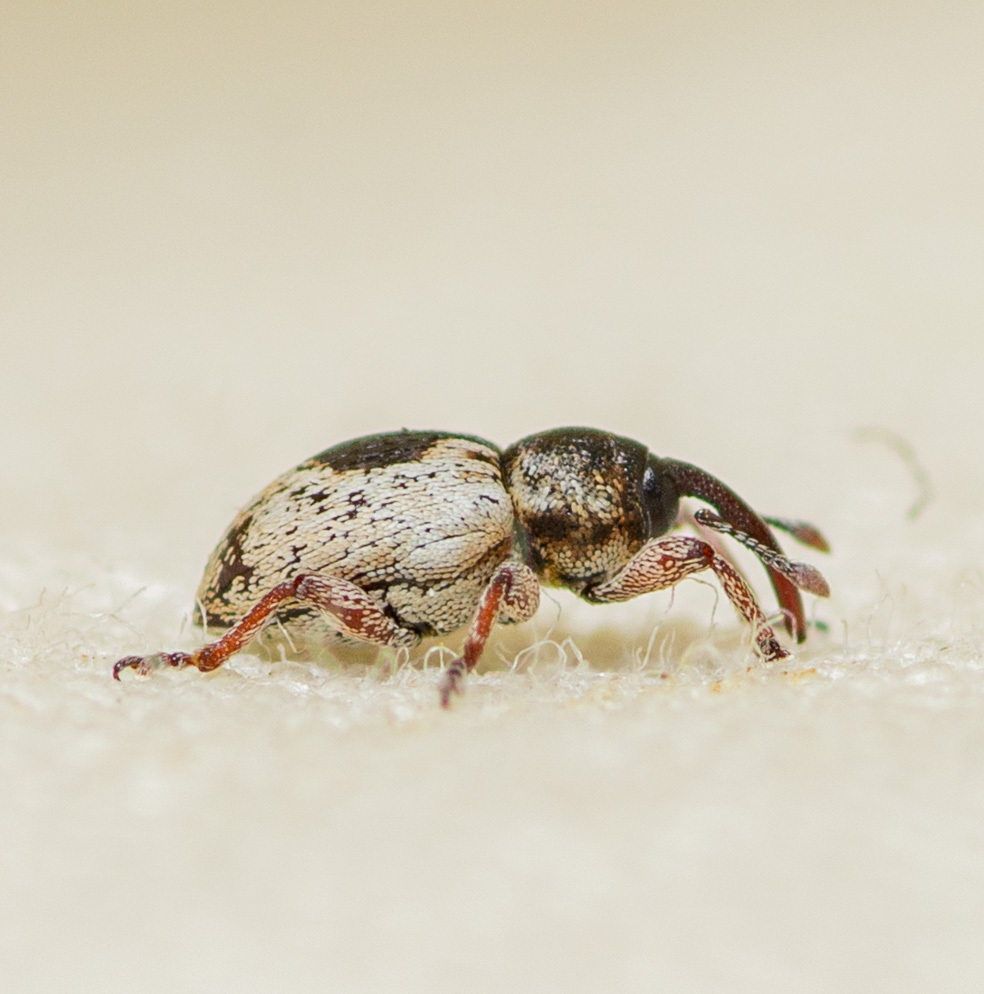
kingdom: Animalia
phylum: Arthropoda
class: Insecta
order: Coleoptera
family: Curculionidae
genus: Smicronyx
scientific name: Smicronyx quadrifer
